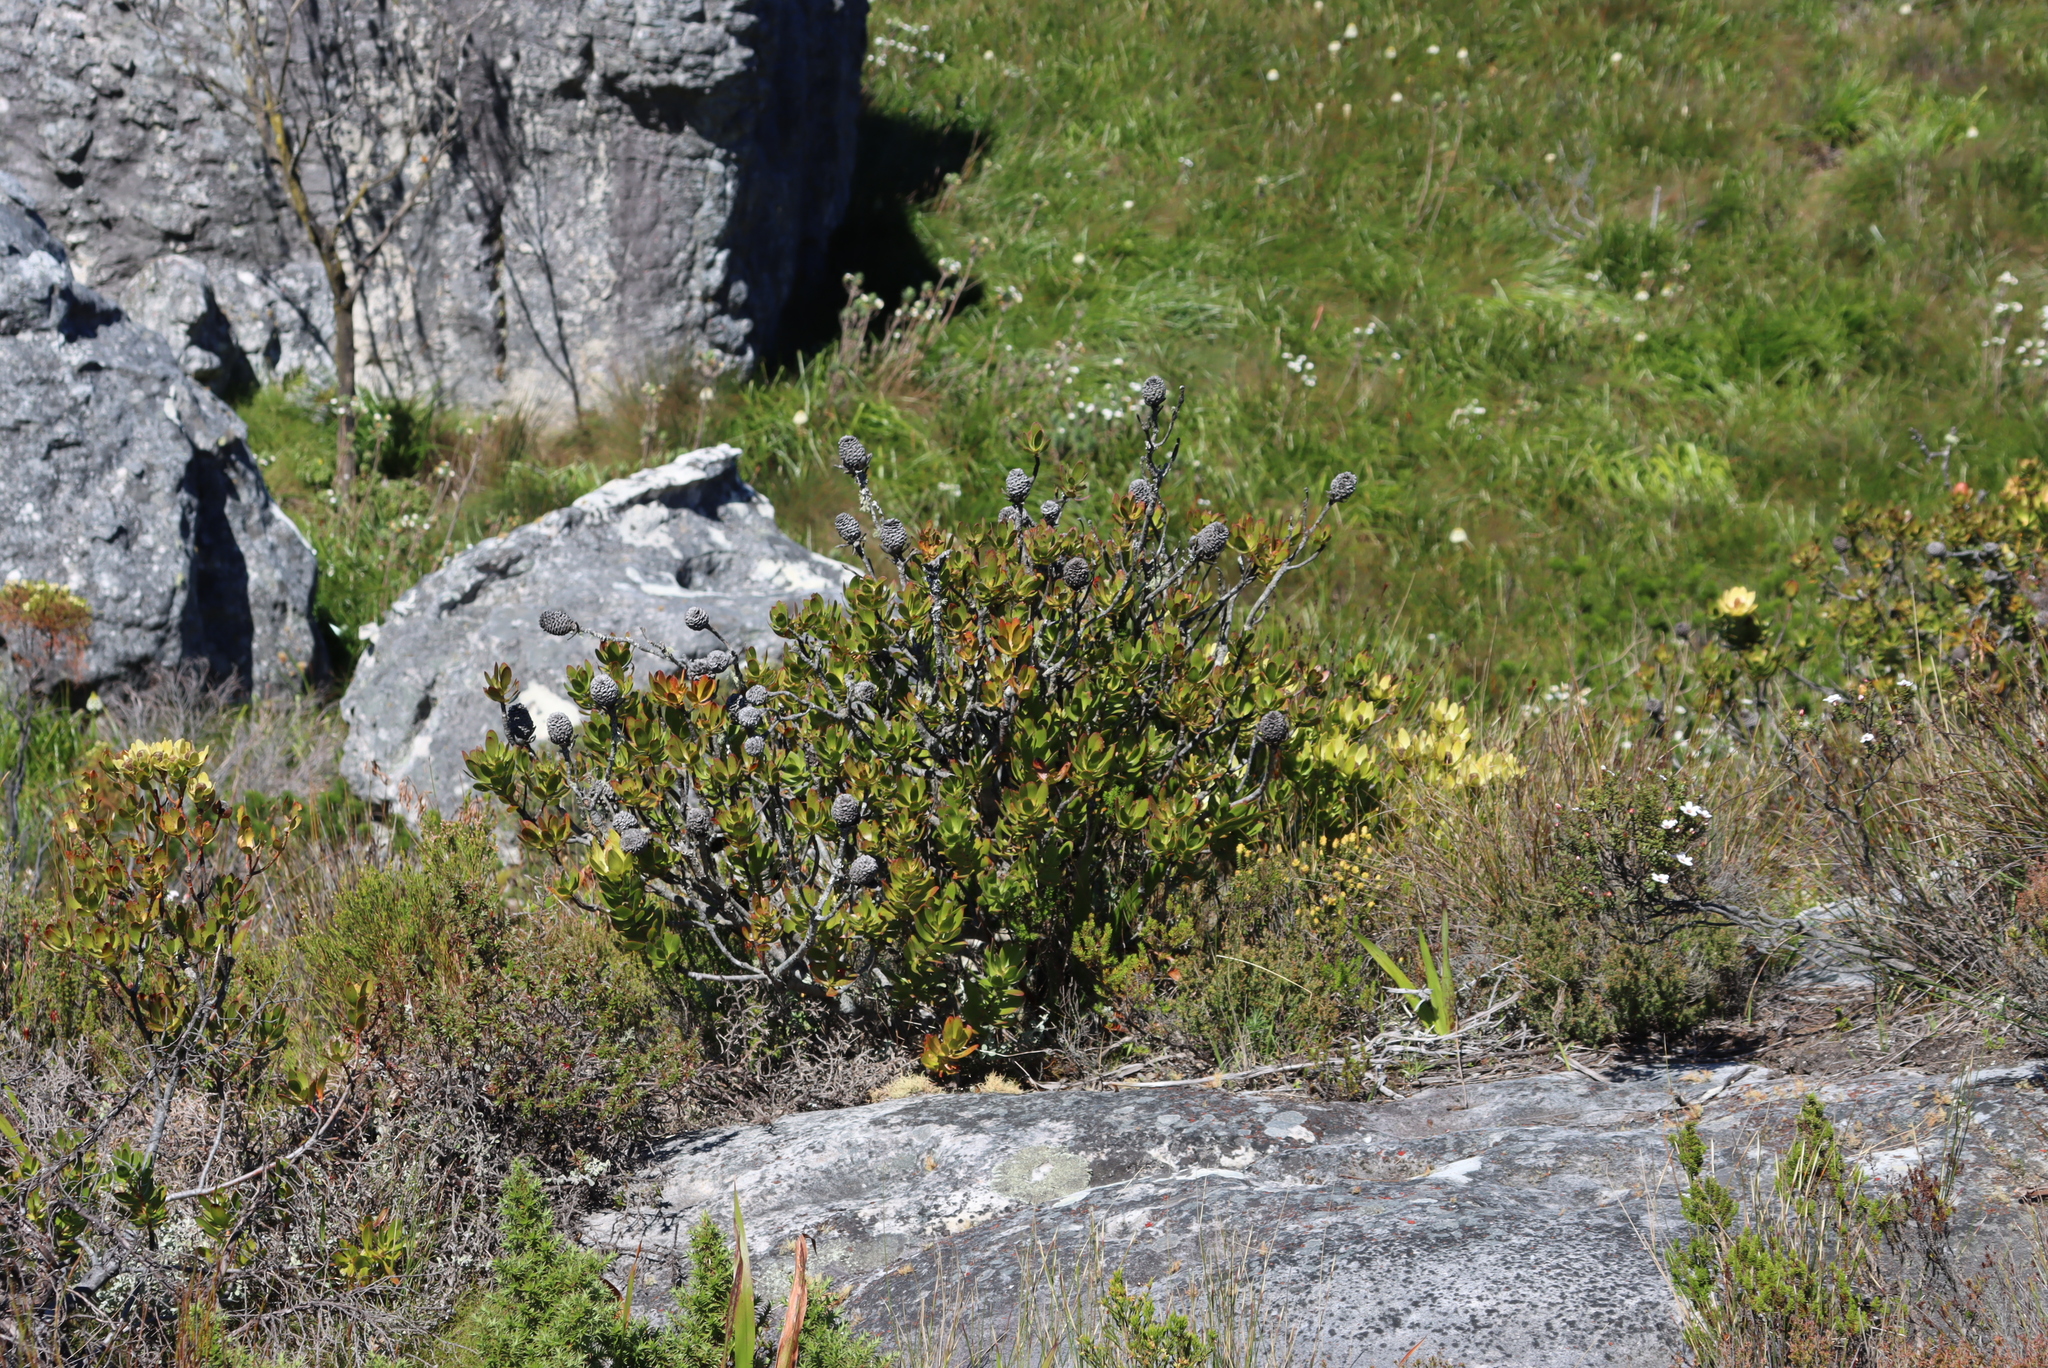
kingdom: Plantae
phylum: Tracheophyta
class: Magnoliopsida
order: Proteales
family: Proteaceae
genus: Leucadendron
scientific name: Leucadendron strobilinum
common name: Mountain rose
